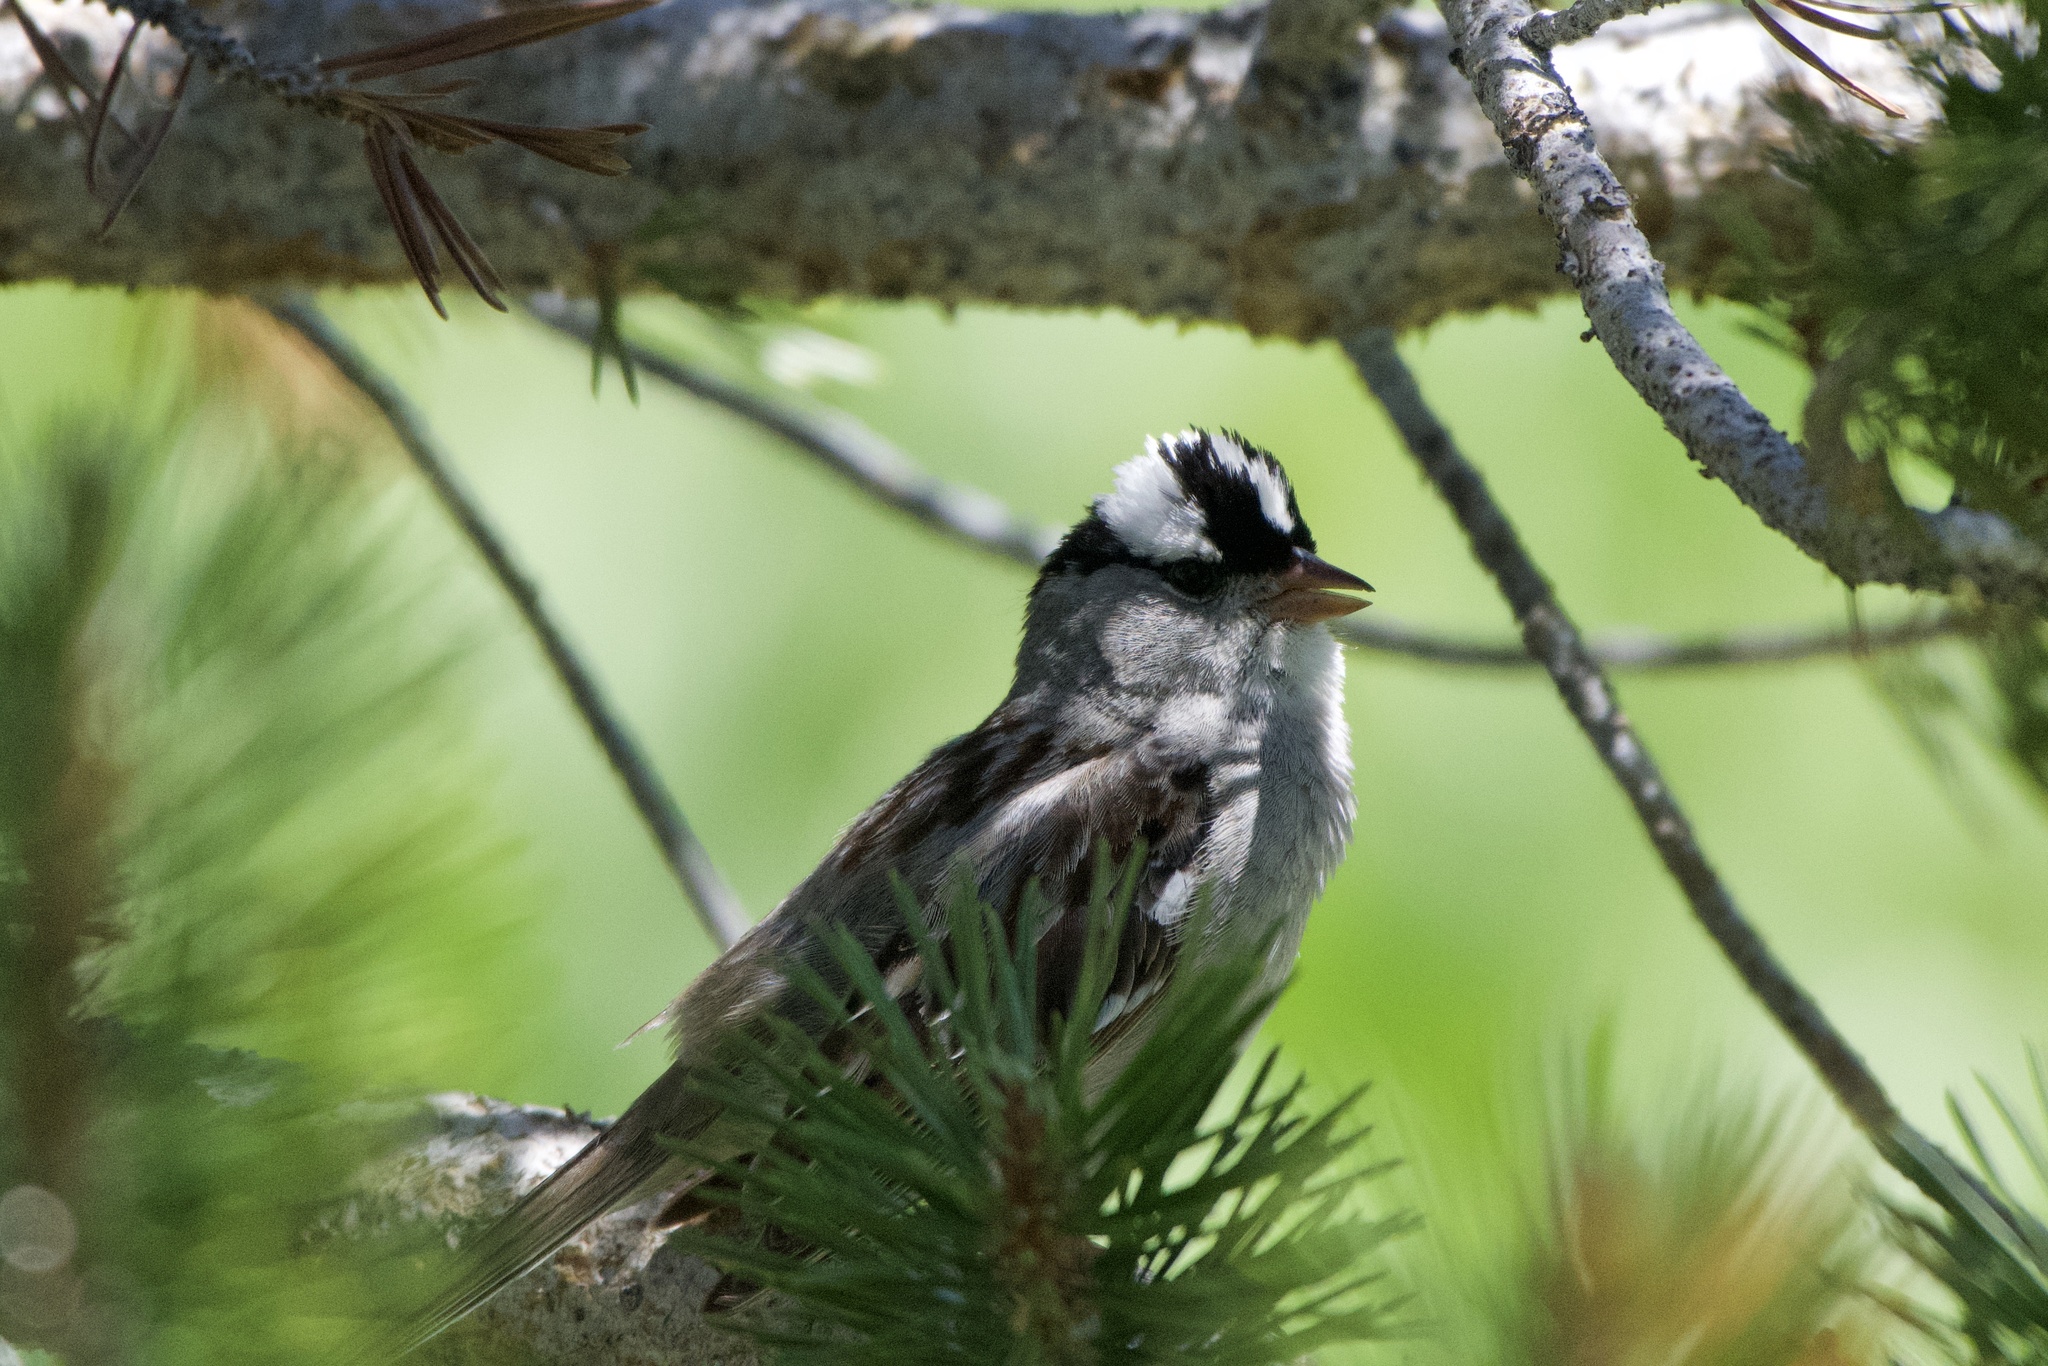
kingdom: Animalia
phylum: Chordata
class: Aves
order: Passeriformes
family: Passerellidae
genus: Zonotrichia
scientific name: Zonotrichia leucophrys
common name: White-crowned sparrow
